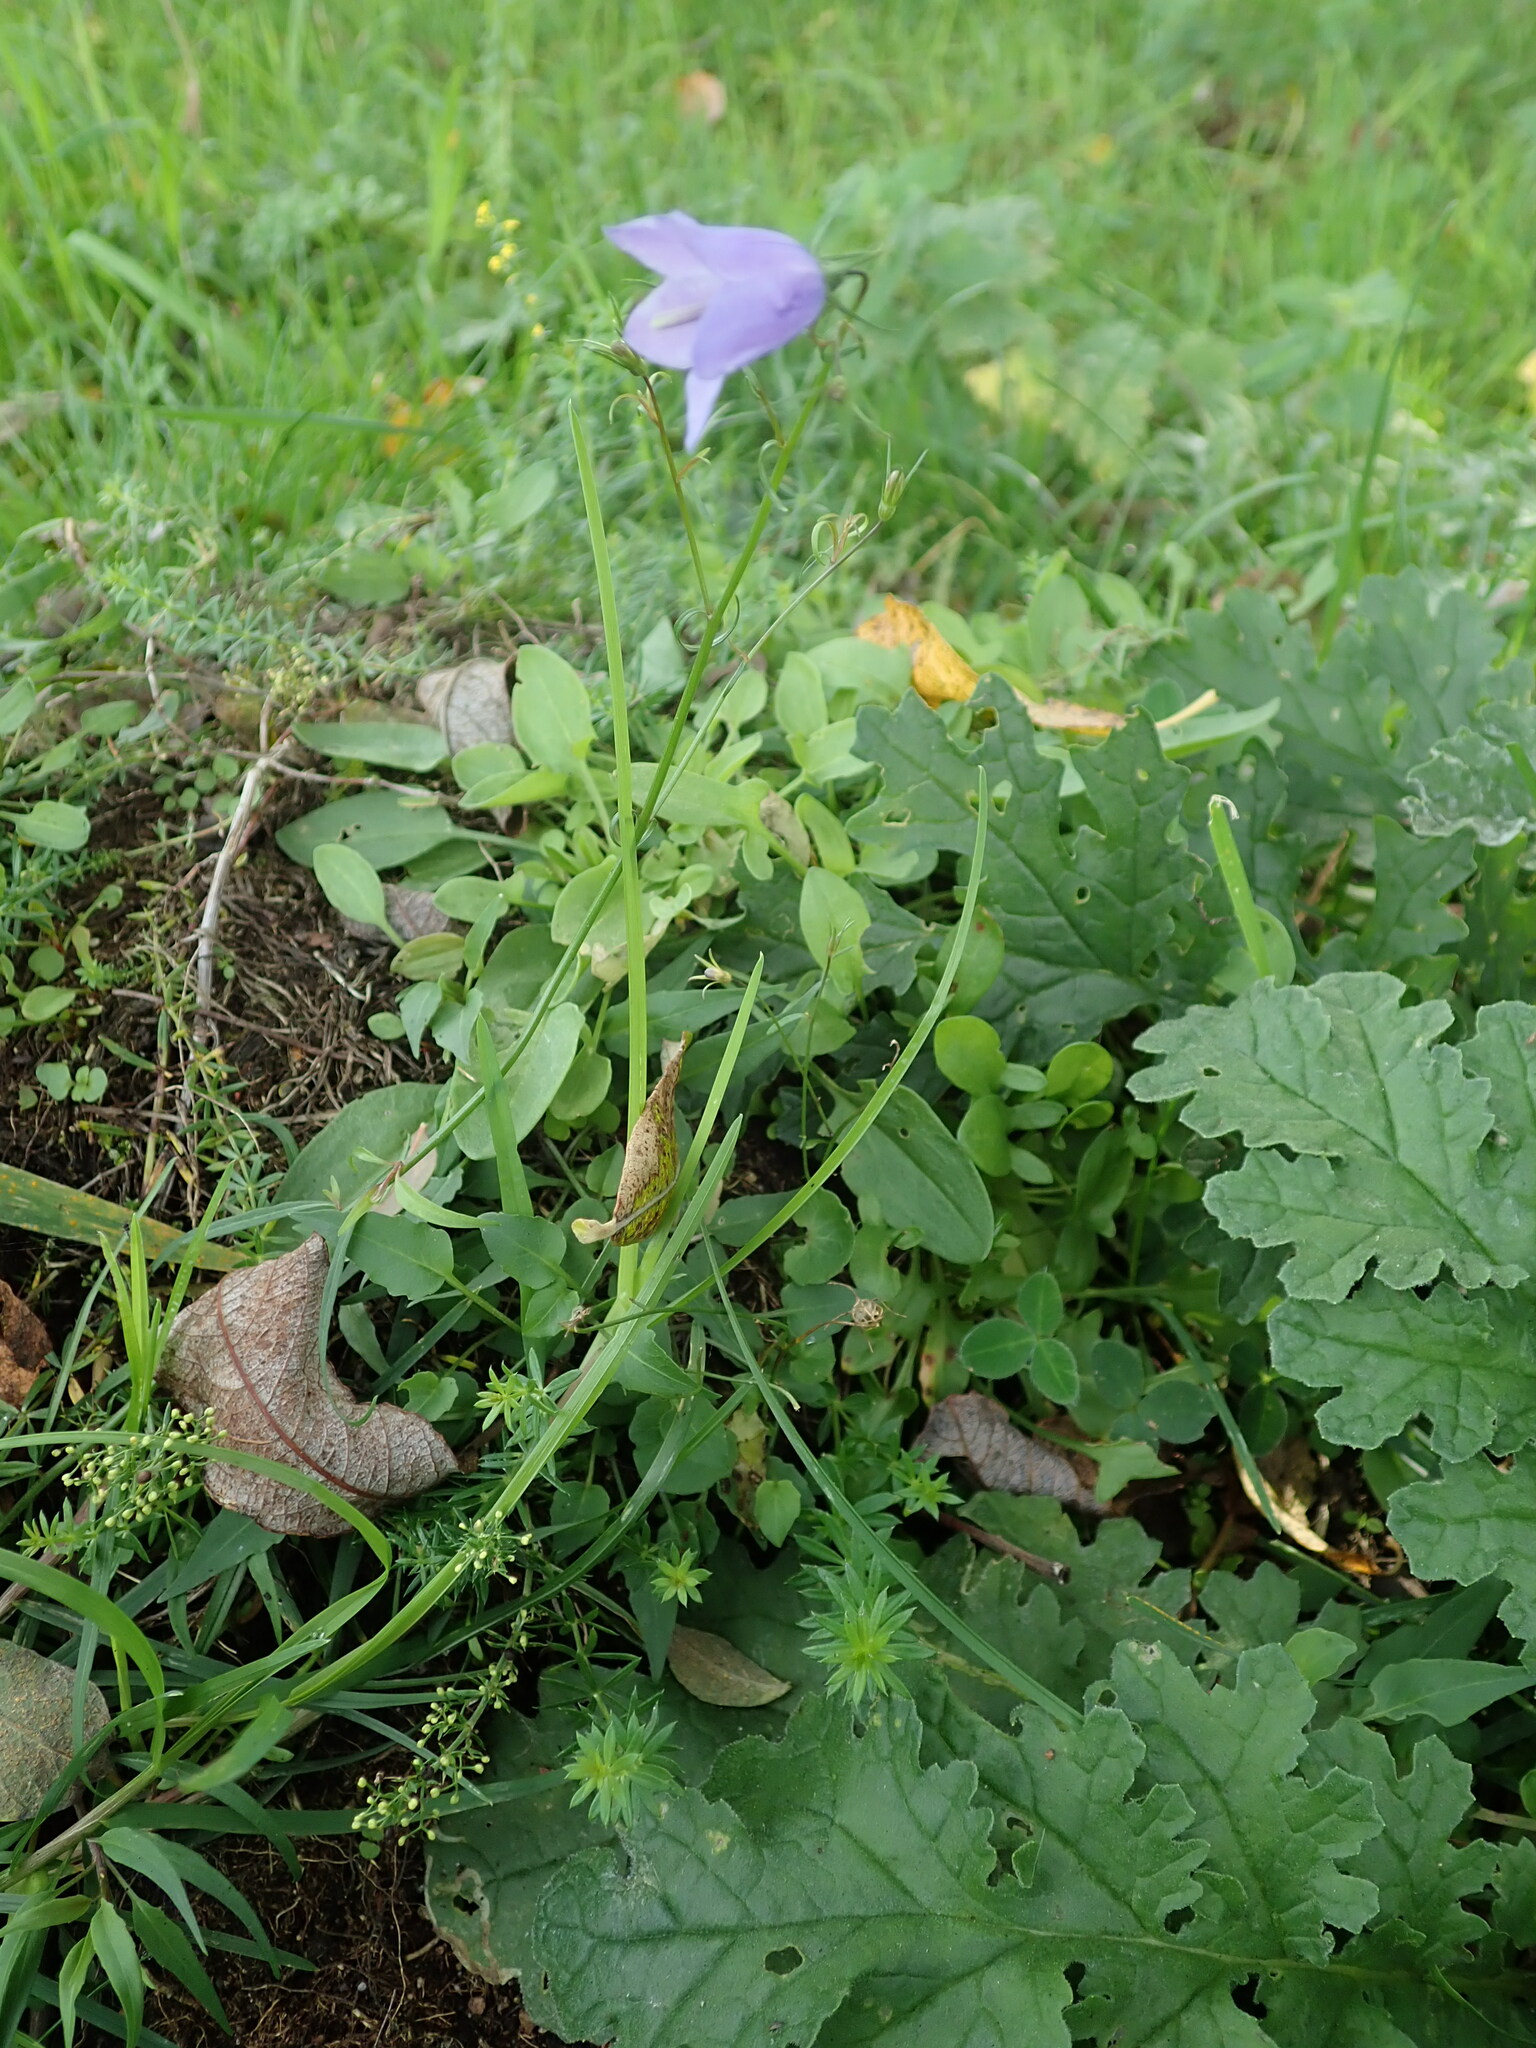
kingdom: Plantae
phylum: Tracheophyta
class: Magnoliopsida
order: Asterales
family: Campanulaceae
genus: Campanula
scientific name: Campanula rotundifolia
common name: Harebell
